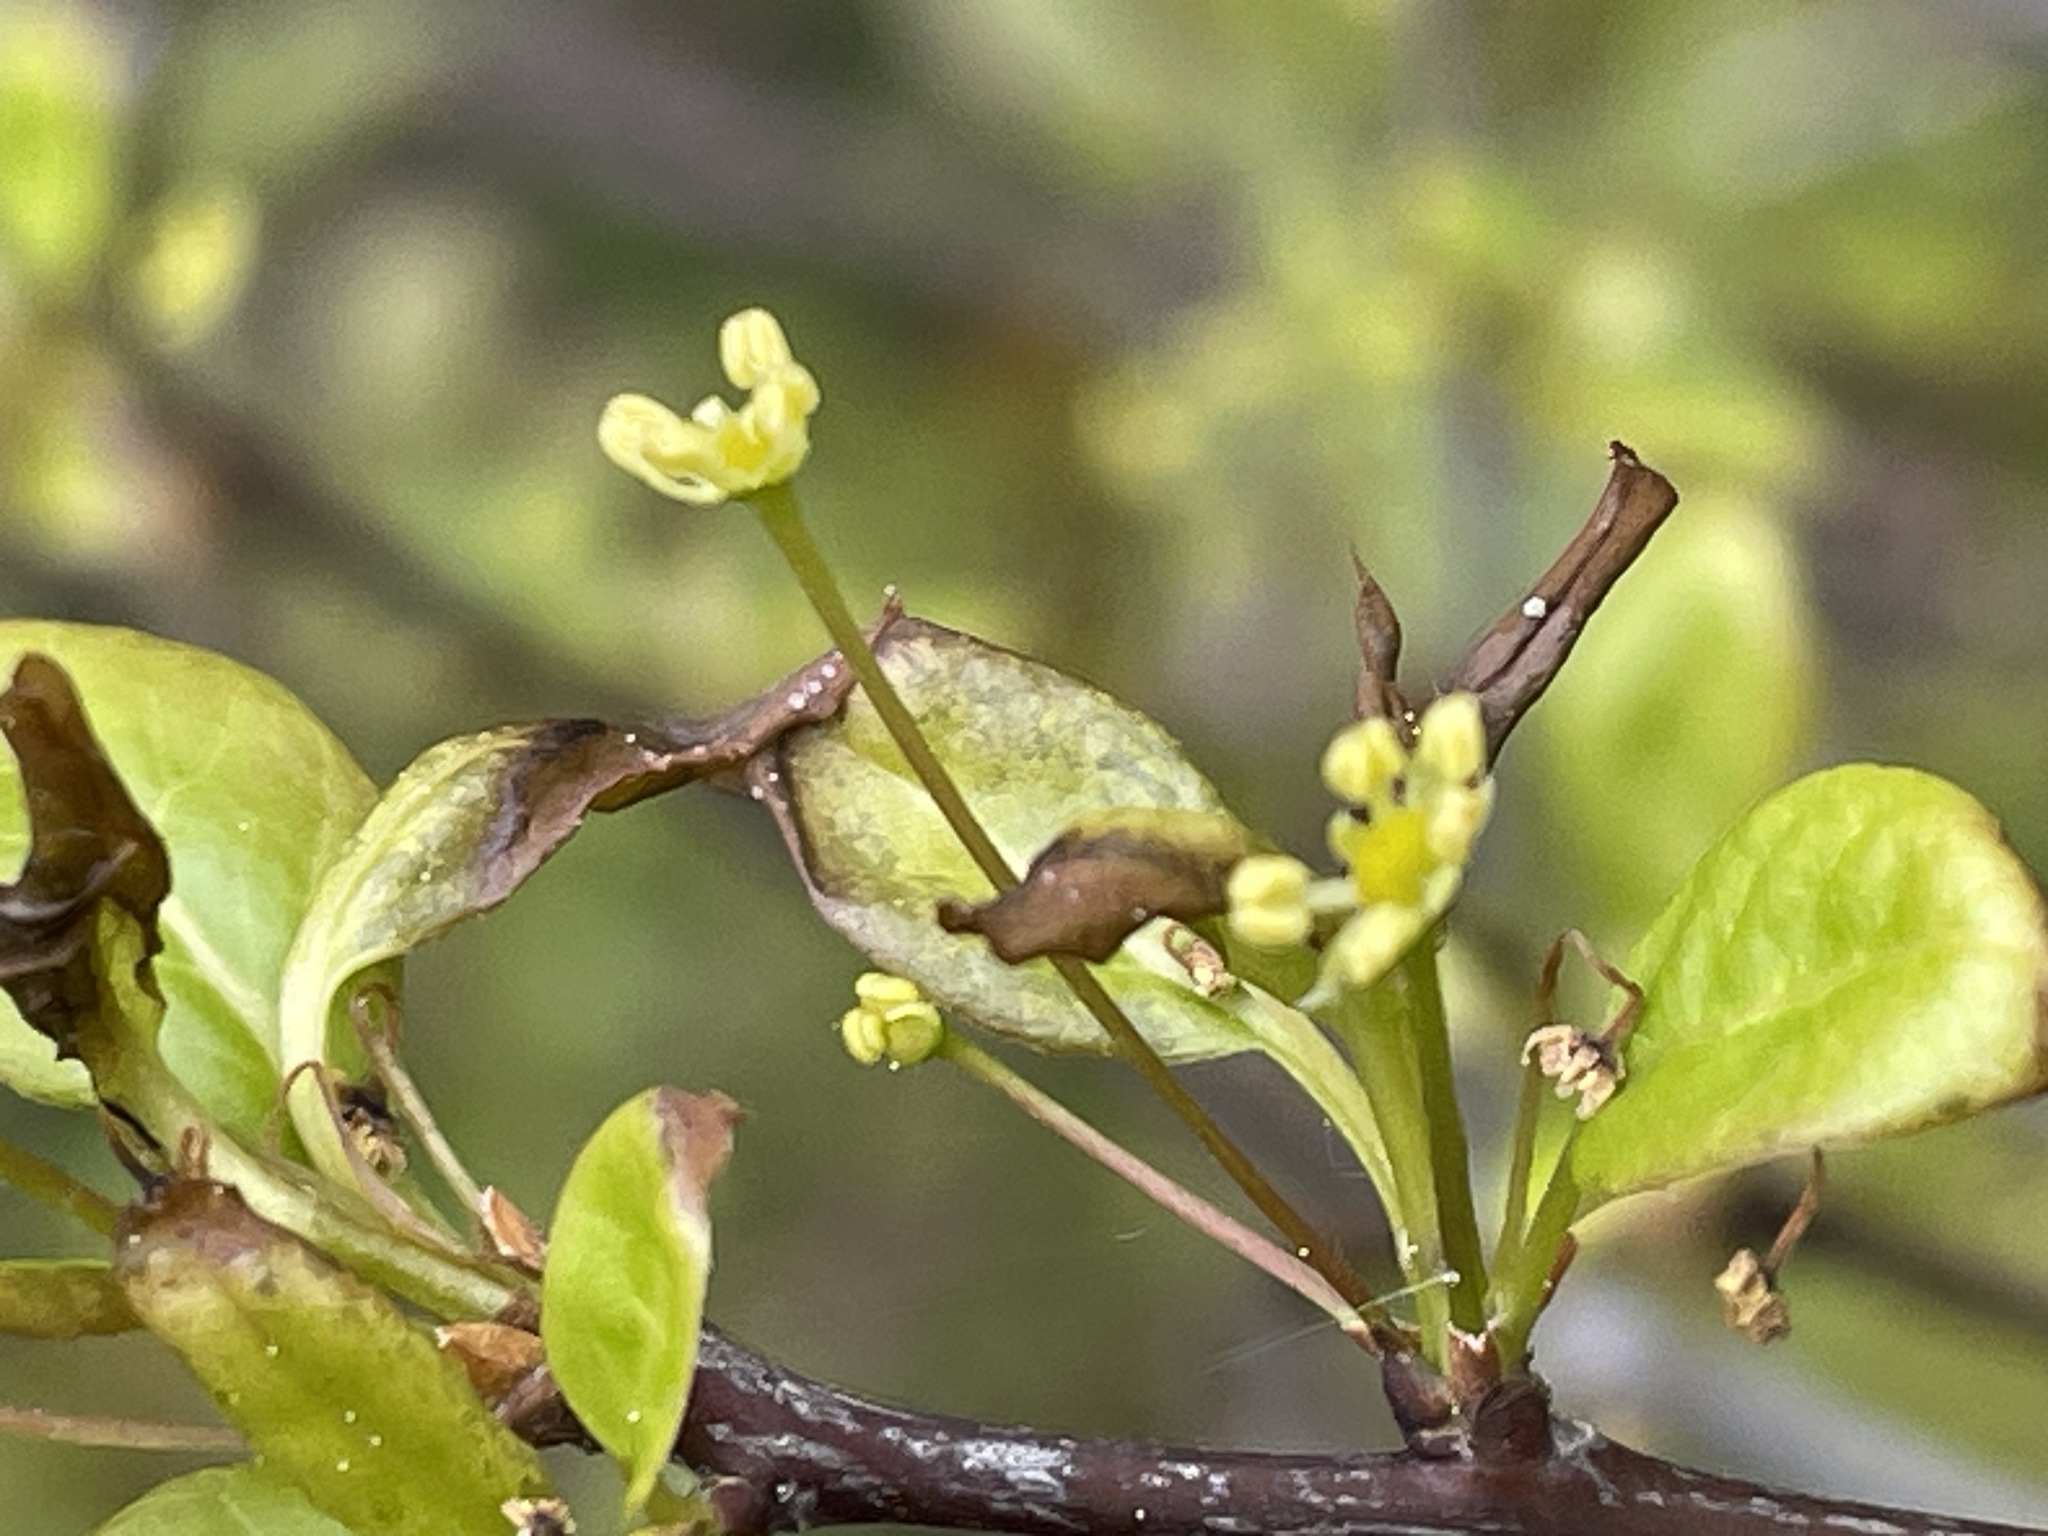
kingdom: Plantae
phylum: Tracheophyta
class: Magnoliopsida
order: Aquifoliales
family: Aquifoliaceae
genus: Ilex
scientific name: Ilex mucronata
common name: Catberry
